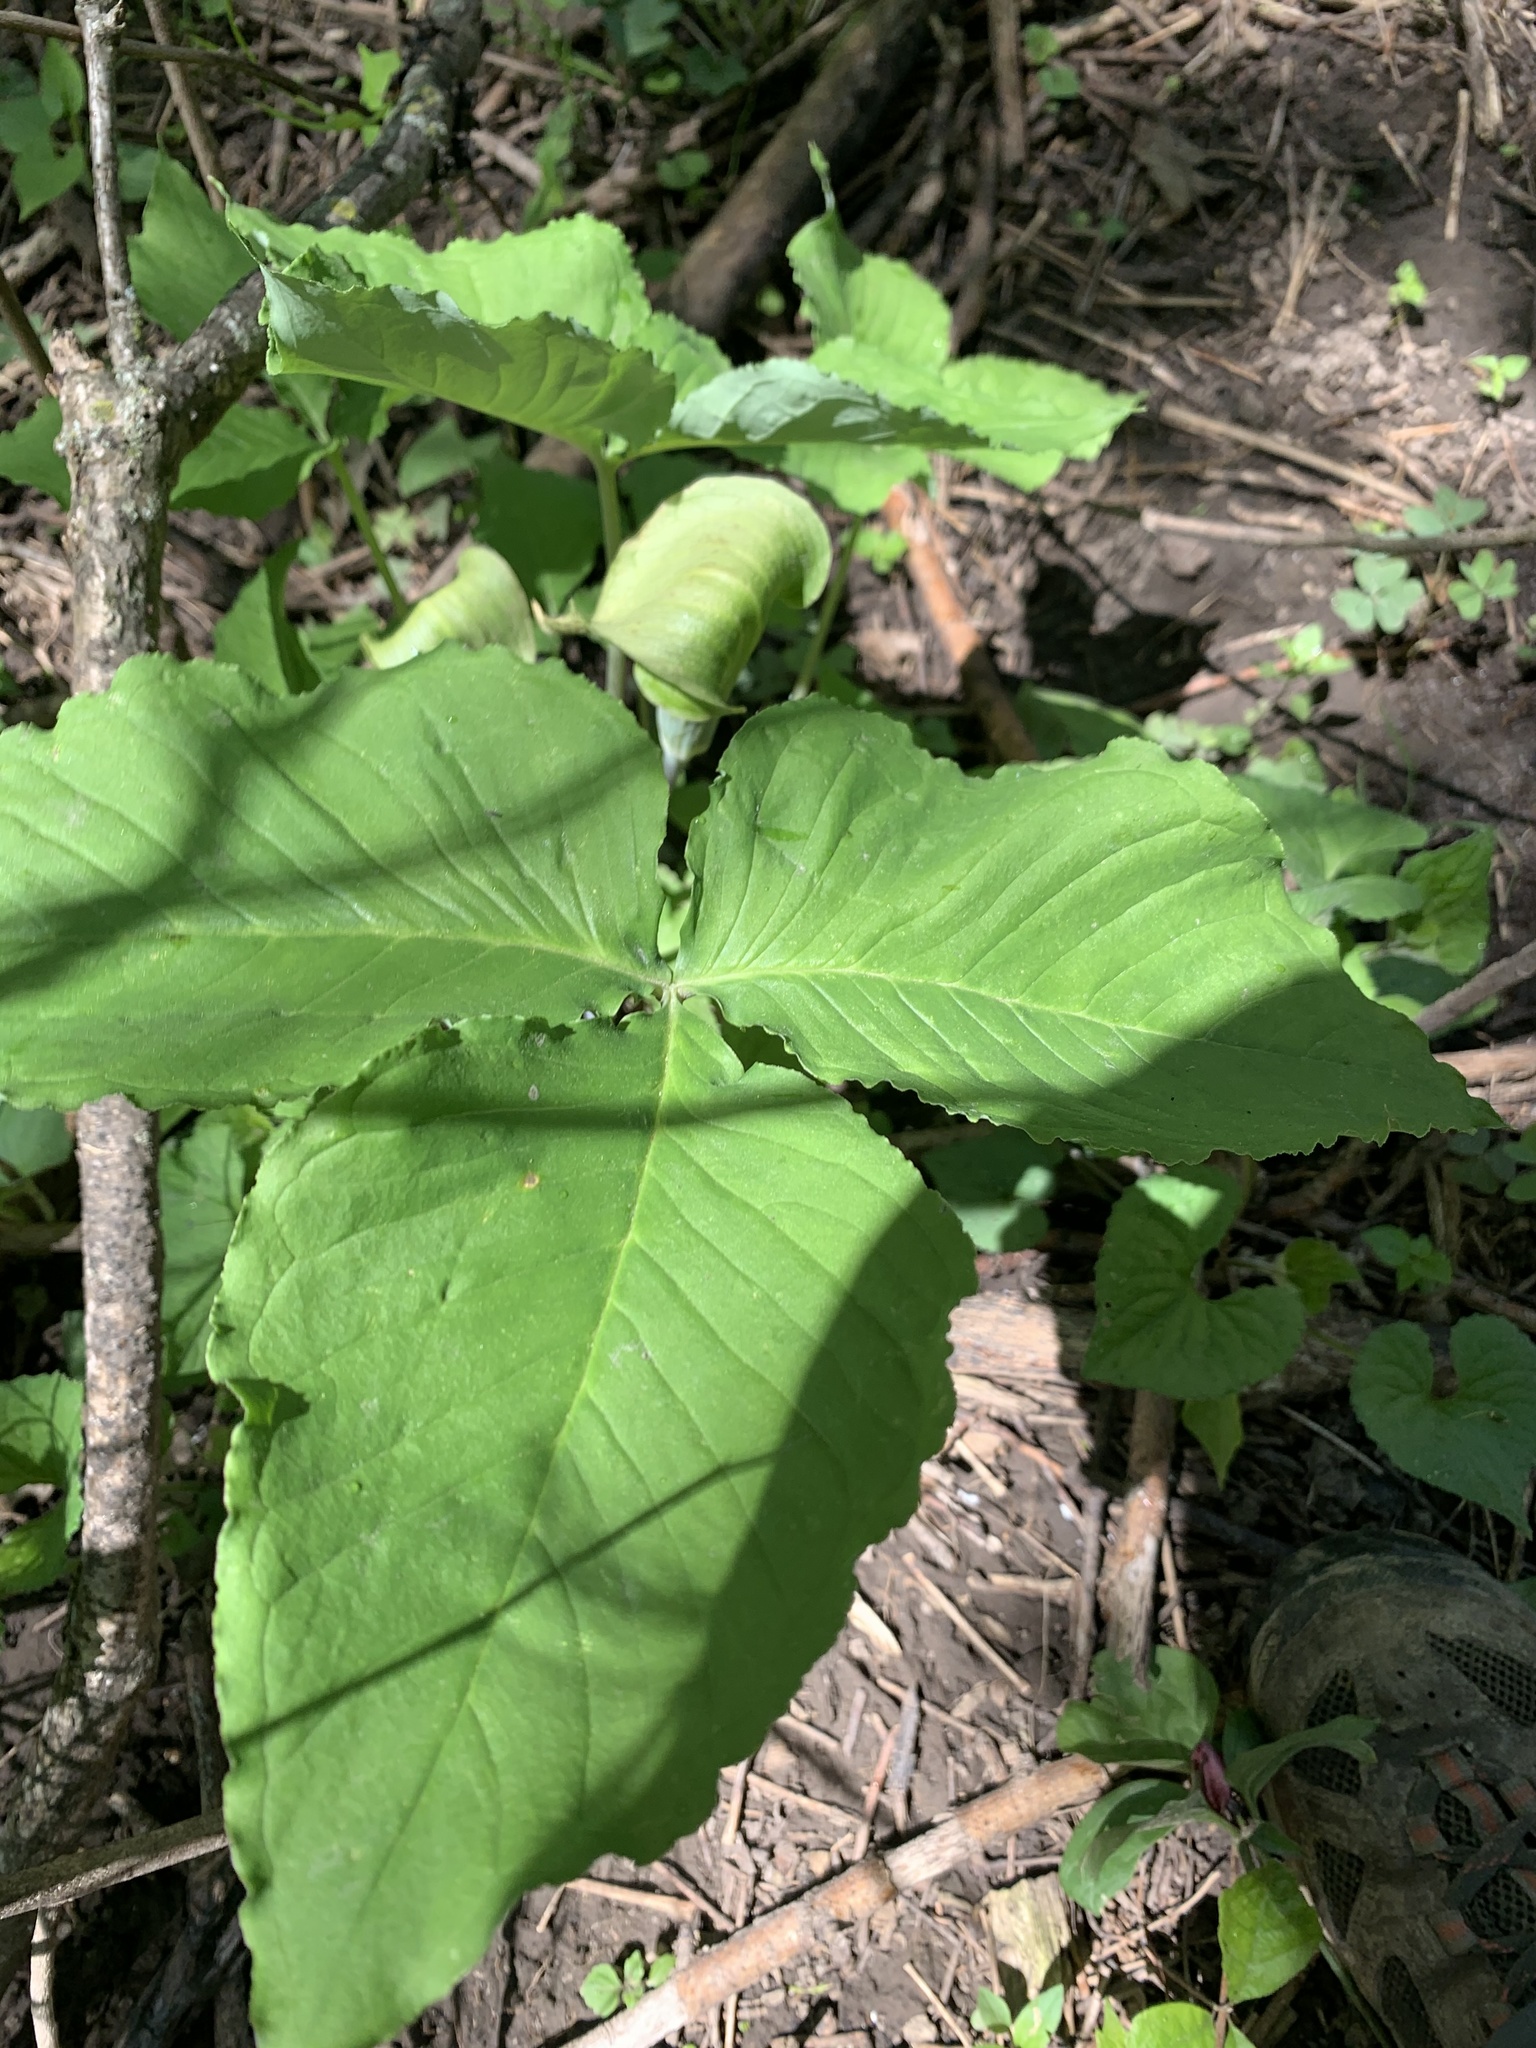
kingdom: Plantae
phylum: Tracheophyta
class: Liliopsida
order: Alismatales
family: Araceae
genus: Arisaema
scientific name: Arisaema triphyllum
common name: Jack-in-the-pulpit
